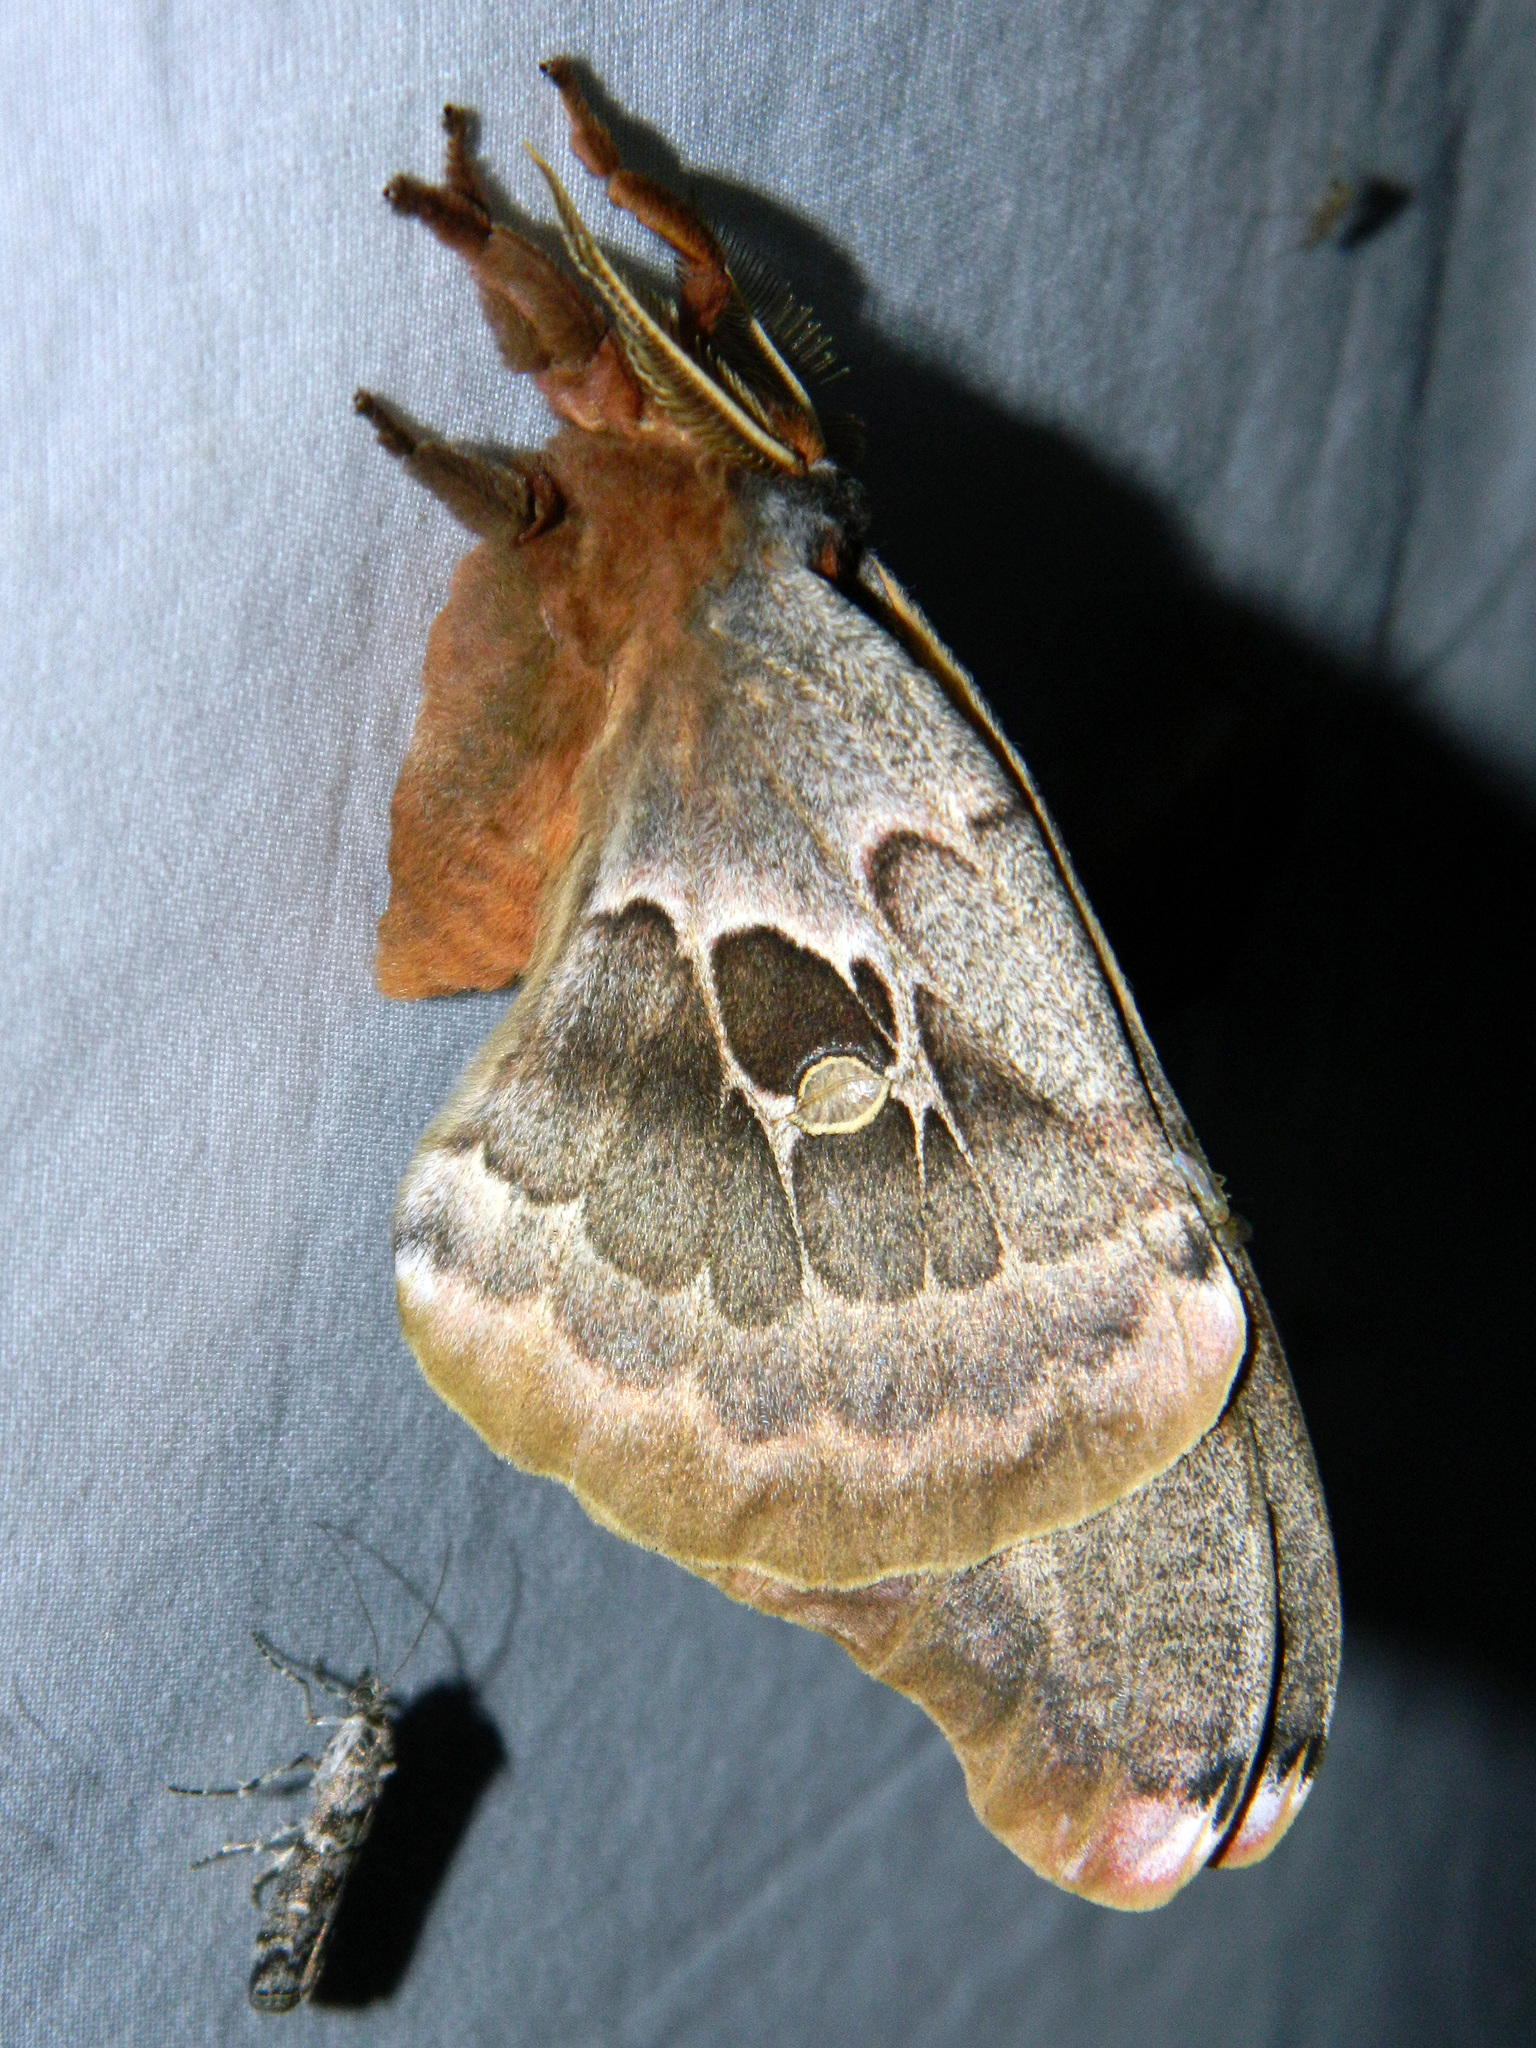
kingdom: Animalia
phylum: Arthropoda
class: Insecta
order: Lepidoptera
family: Saturniidae
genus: Antheraea
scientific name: Antheraea polyphemus
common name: Polyphemus moth
